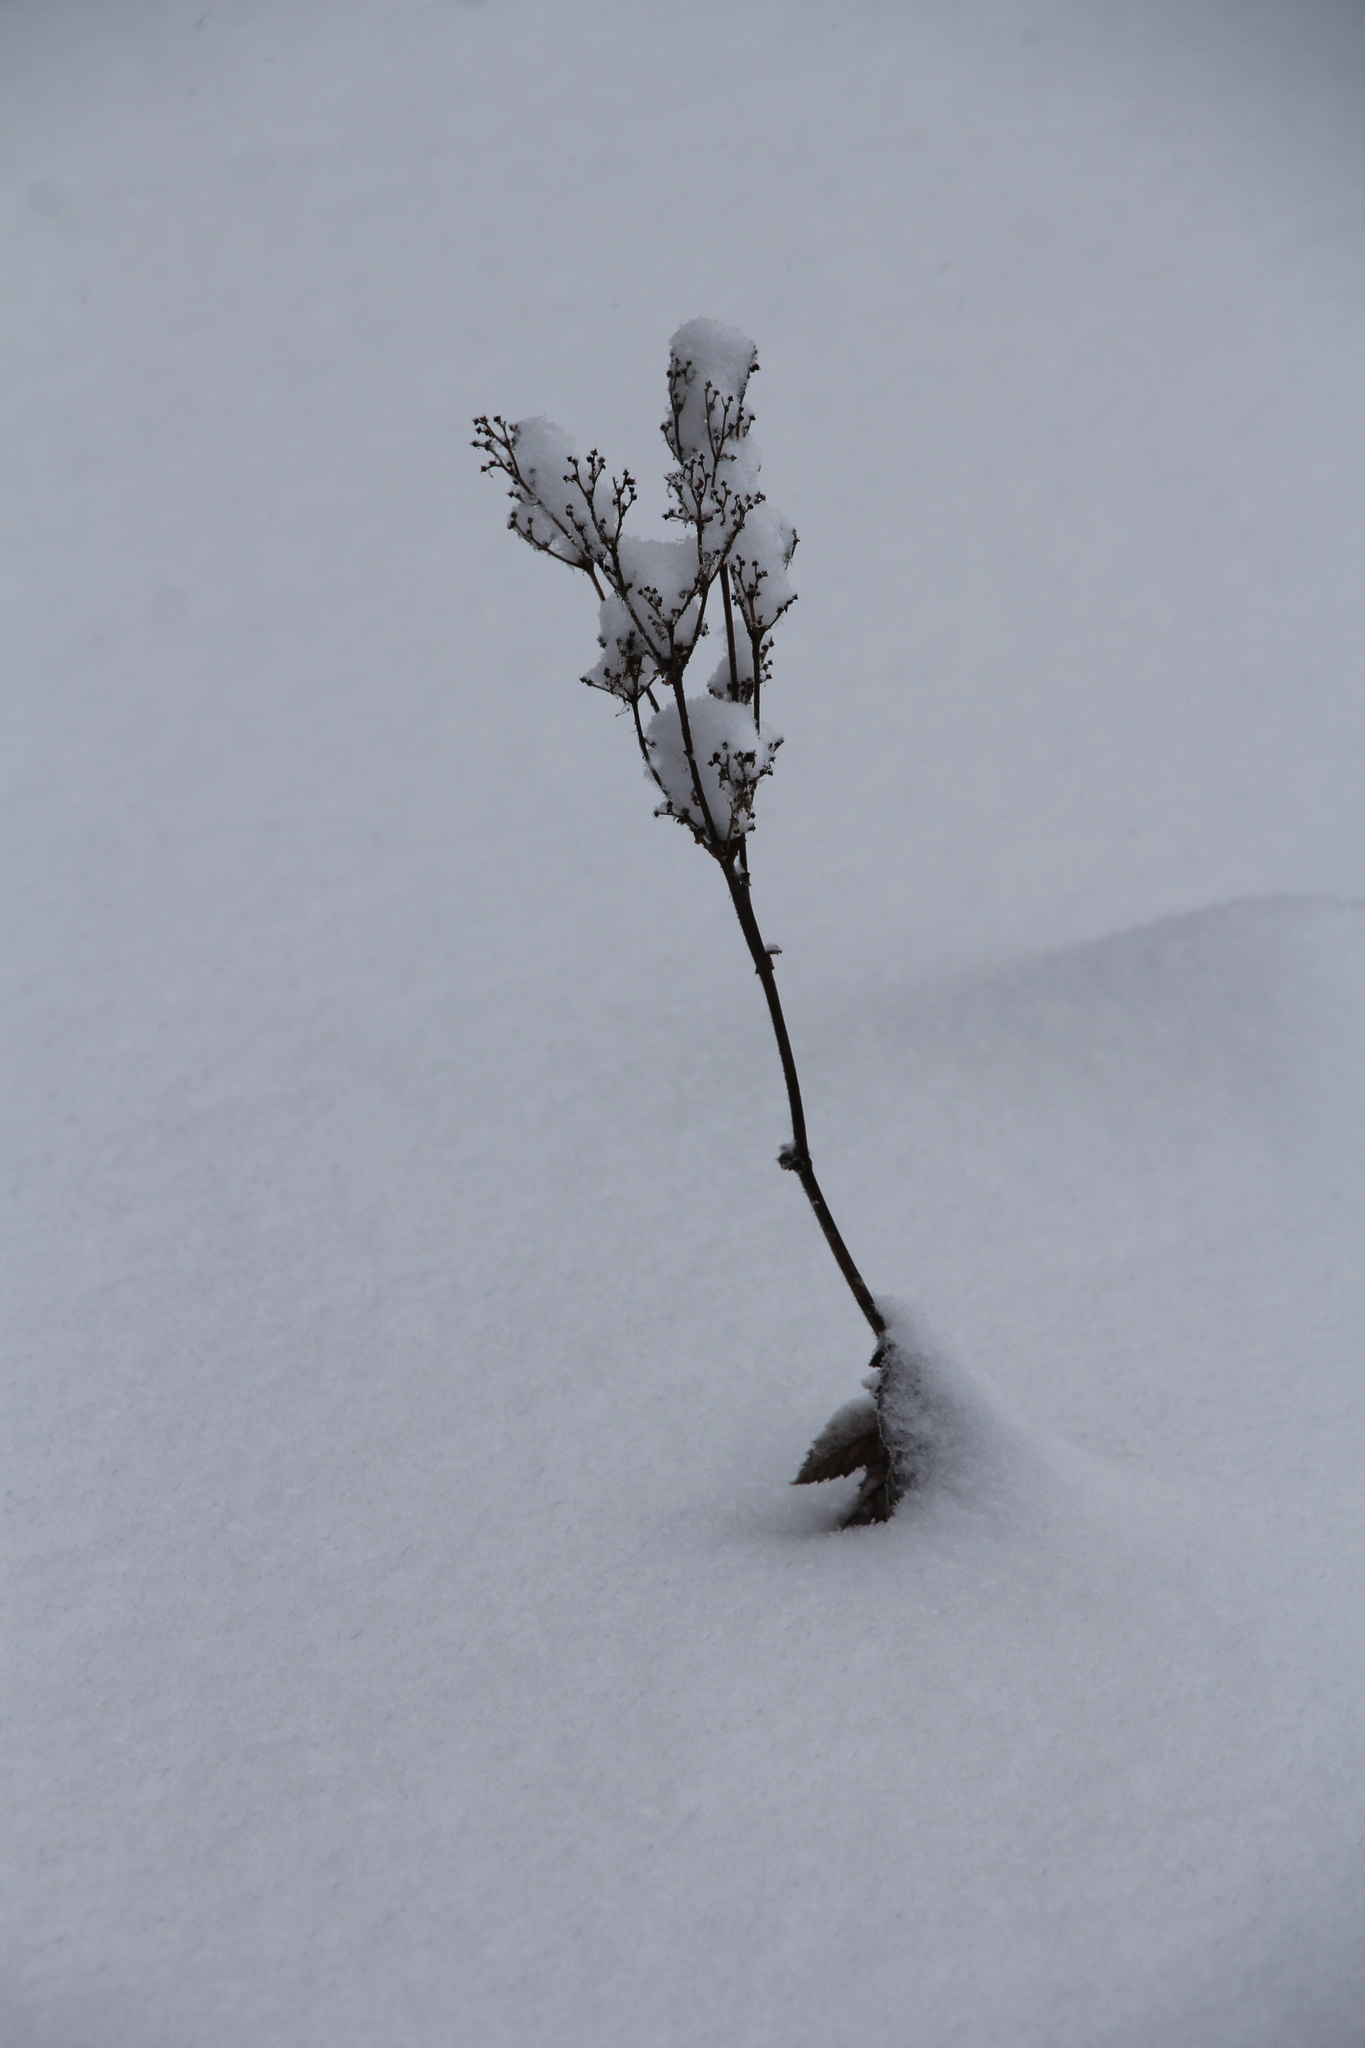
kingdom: Plantae
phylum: Tracheophyta
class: Magnoliopsida
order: Rosales
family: Rosaceae
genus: Filipendula
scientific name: Filipendula ulmaria
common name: Meadowsweet
